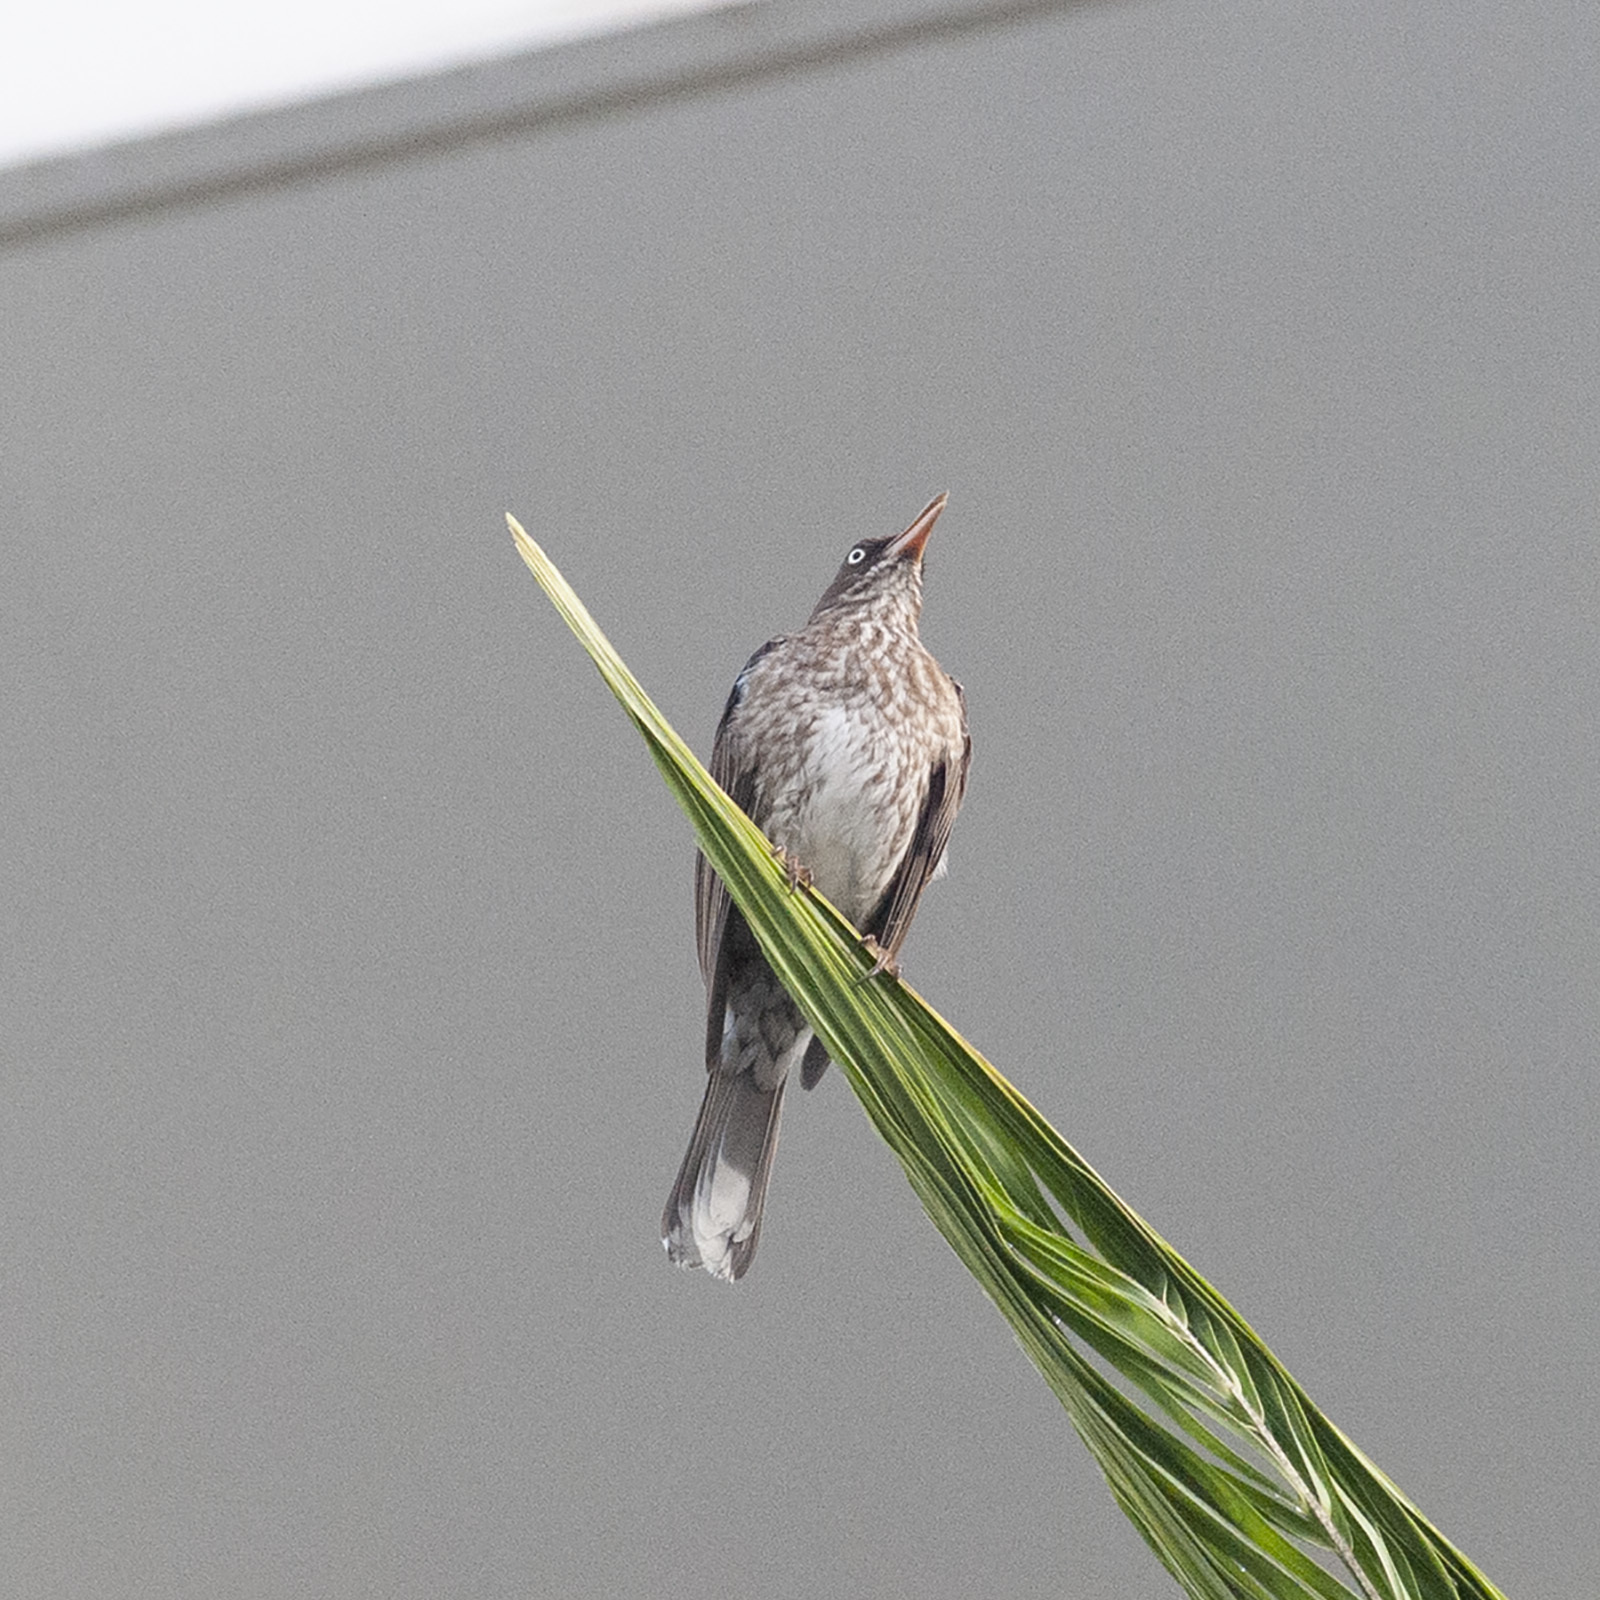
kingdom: Animalia
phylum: Chordata
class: Aves
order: Passeriformes
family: Mimidae
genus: Margarops
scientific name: Margarops fuscatus
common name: Pearly-eyed thrasher
